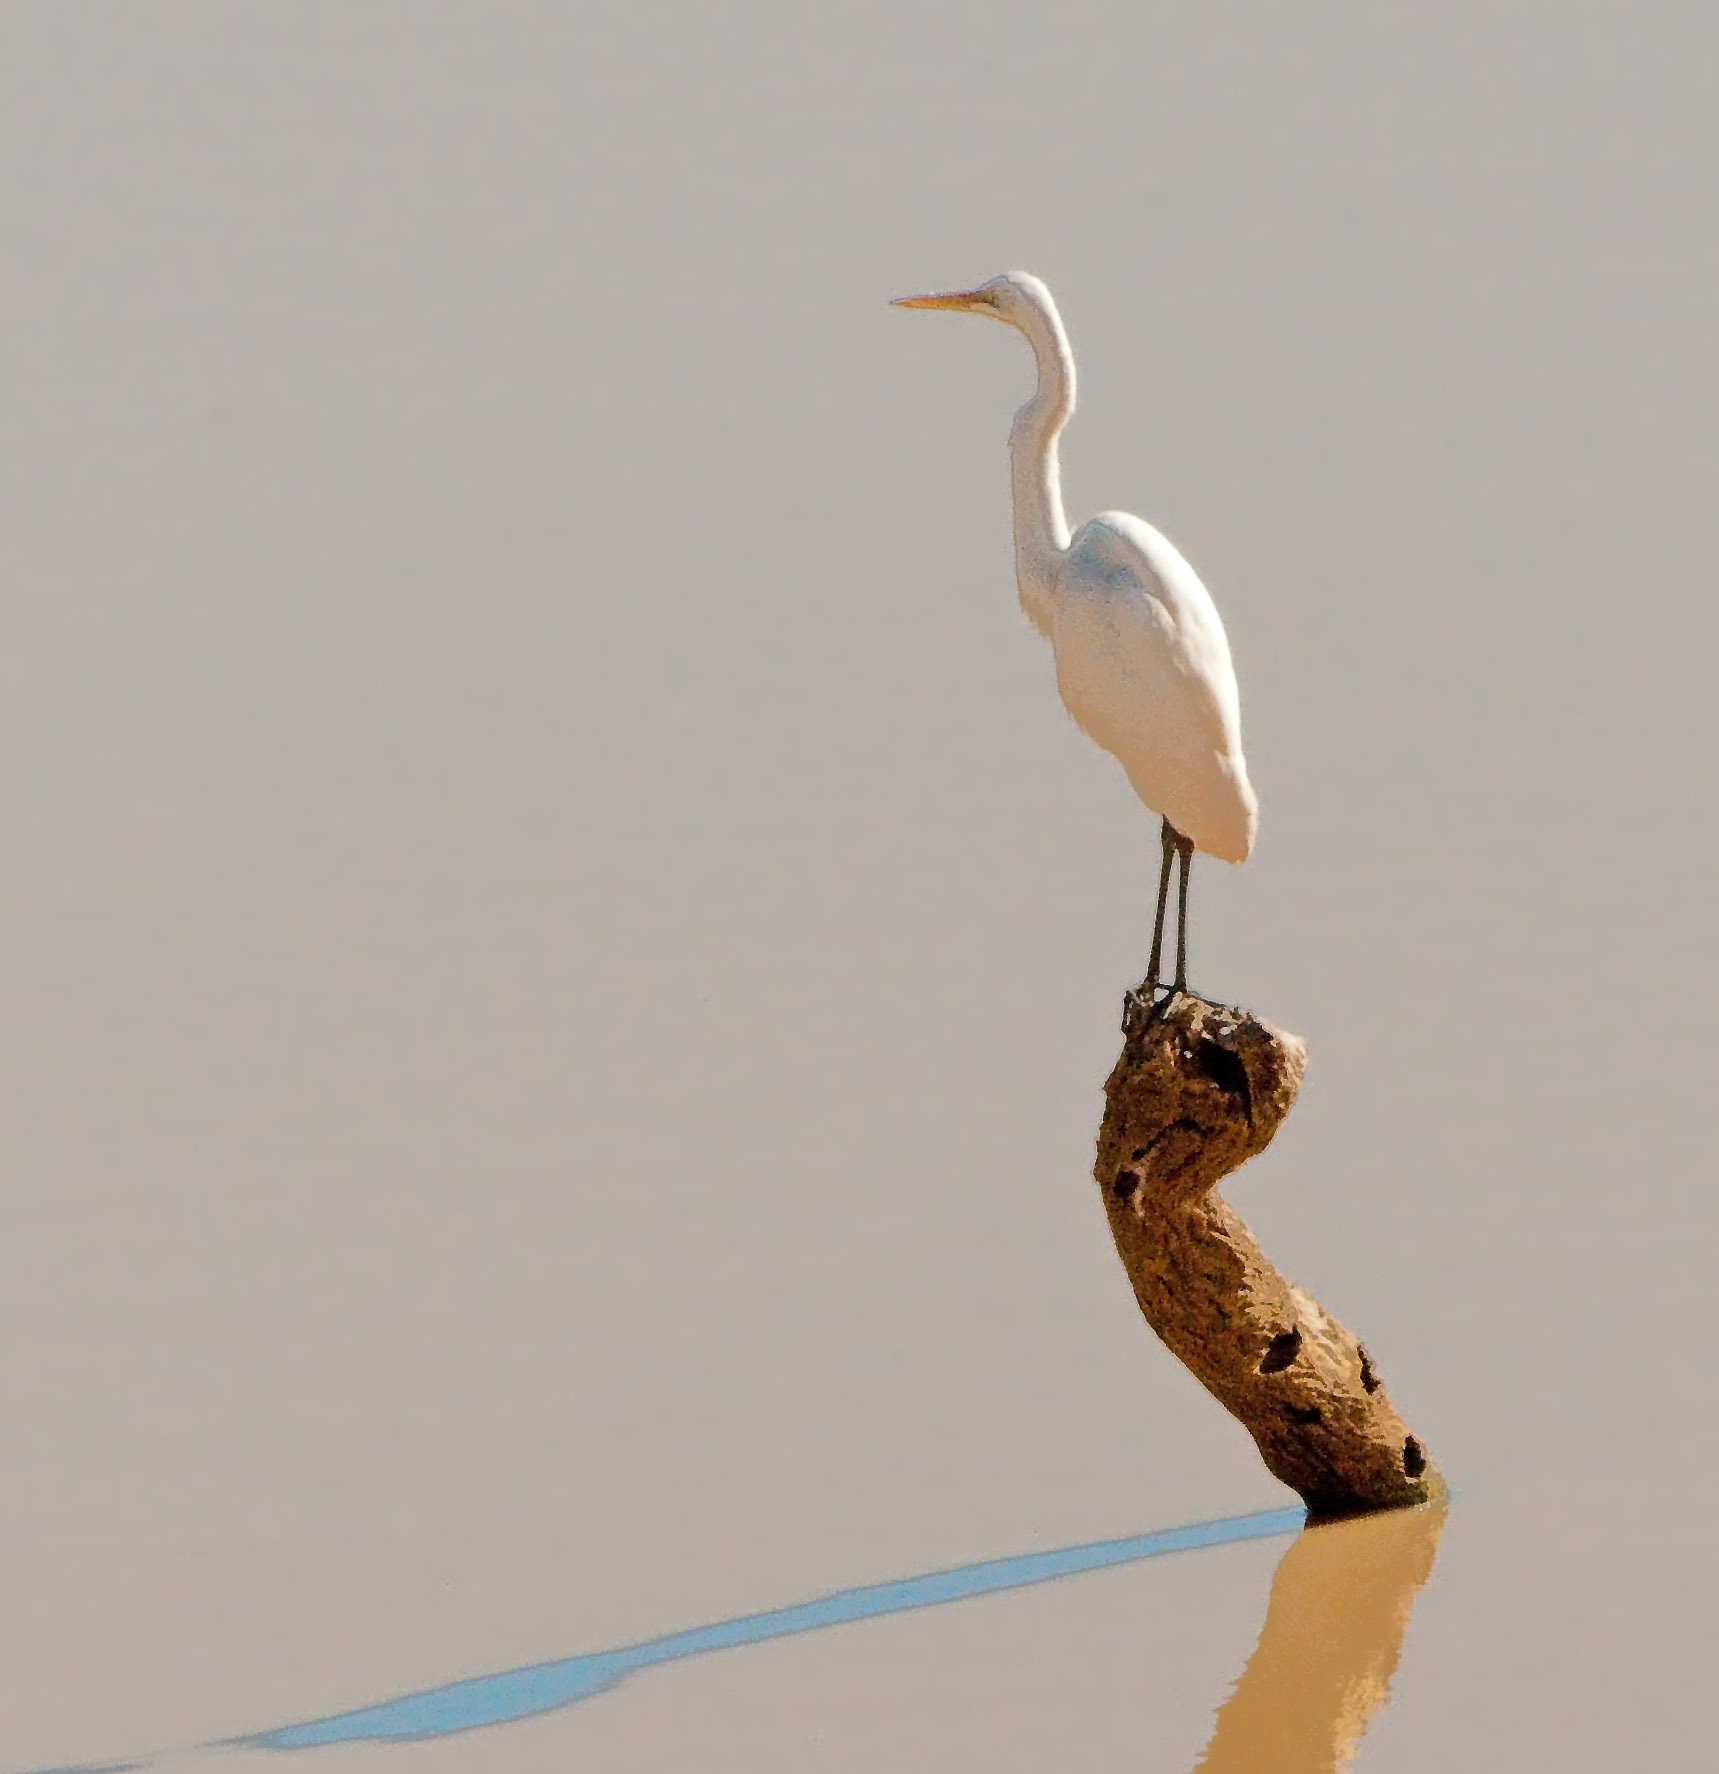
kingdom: Animalia
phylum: Chordata
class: Aves
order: Pelecaniformes
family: Ardeidae
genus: Ardea
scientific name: Ardea alba
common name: Great egret
